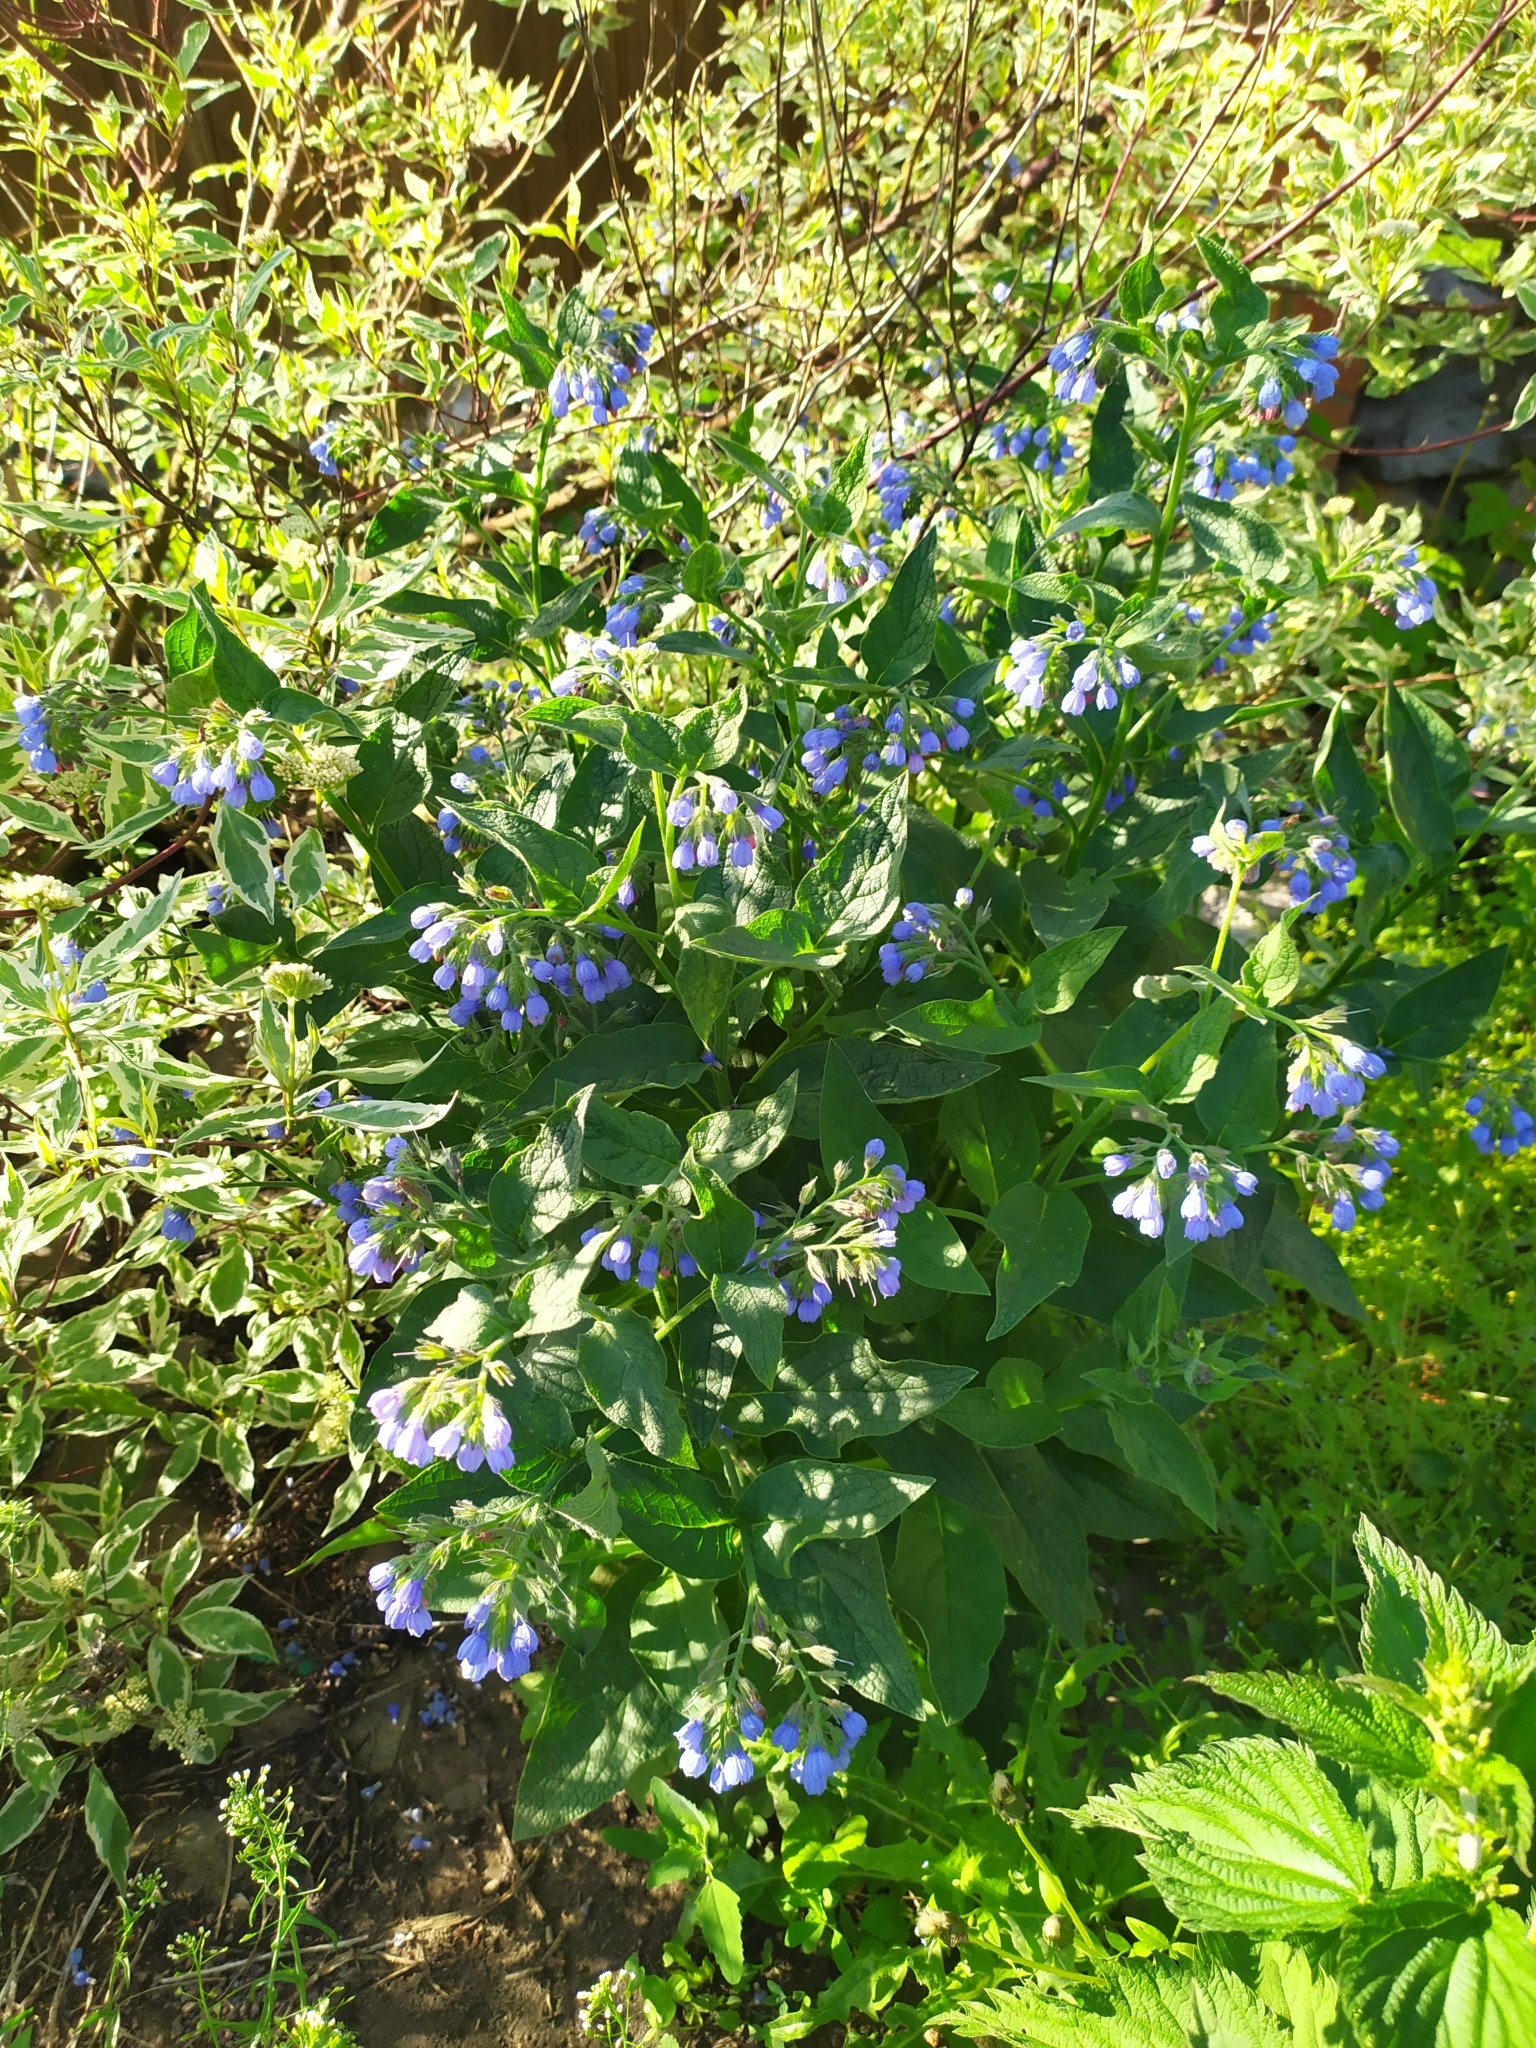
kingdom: Plantae
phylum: Tracheophyta
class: Magnoliopsida
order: Boraginales
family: Boraginaceae
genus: Symphytum
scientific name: Symphytum caucasicum
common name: Caucasian comfrey
